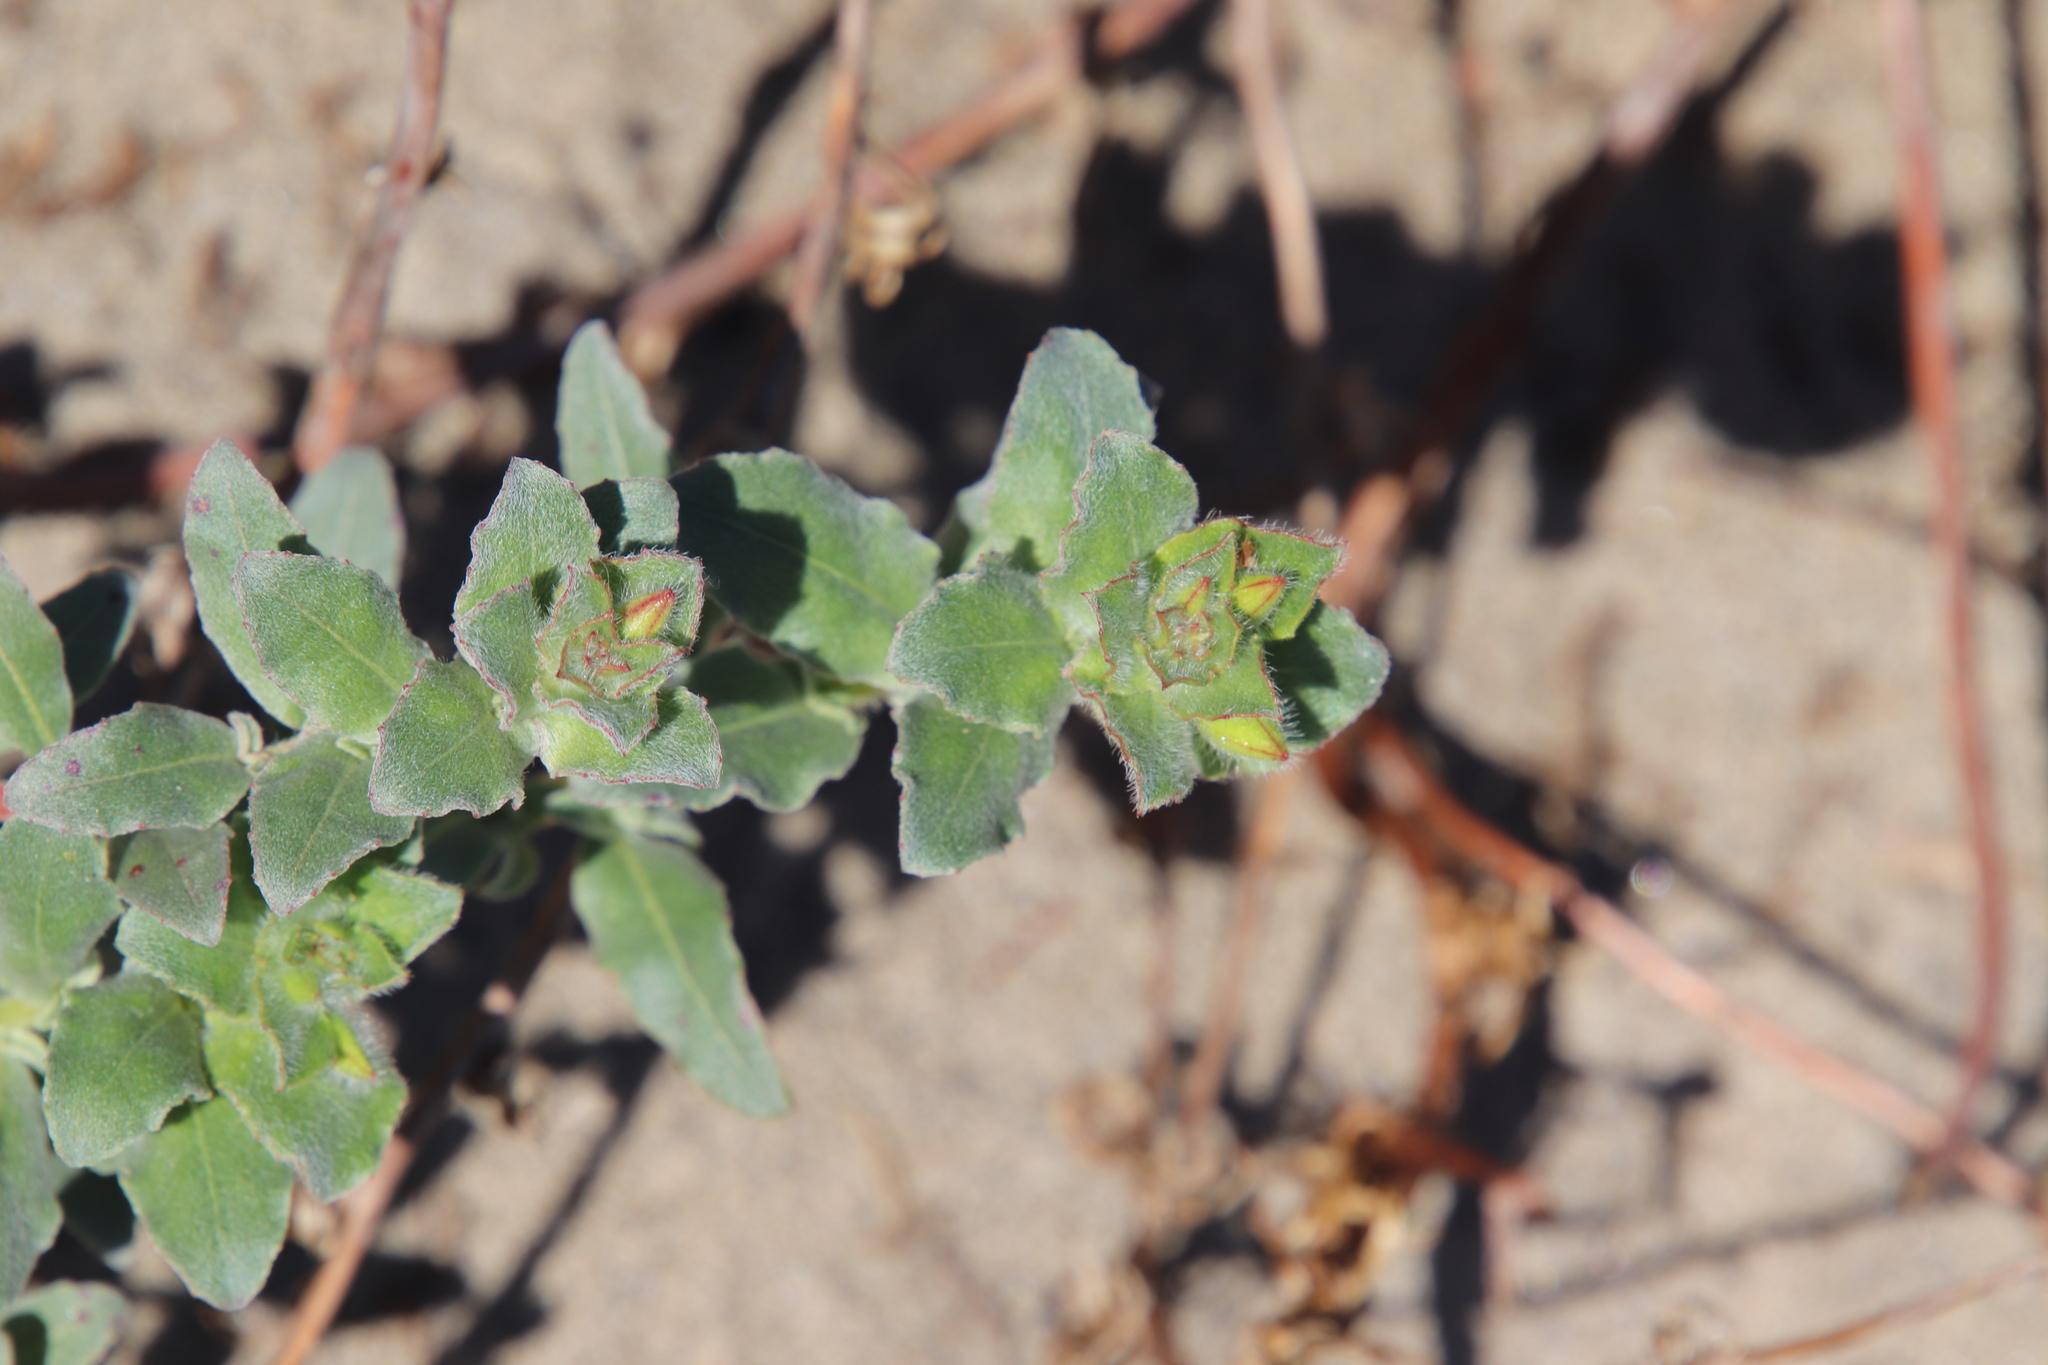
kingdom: Plantae
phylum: Tracheophyta
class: Magnoliopsida
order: Myrtales
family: Onagraceae
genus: Camissoniopsis
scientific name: Camissoniopsis cheiranthifolia
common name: Beach suncup
